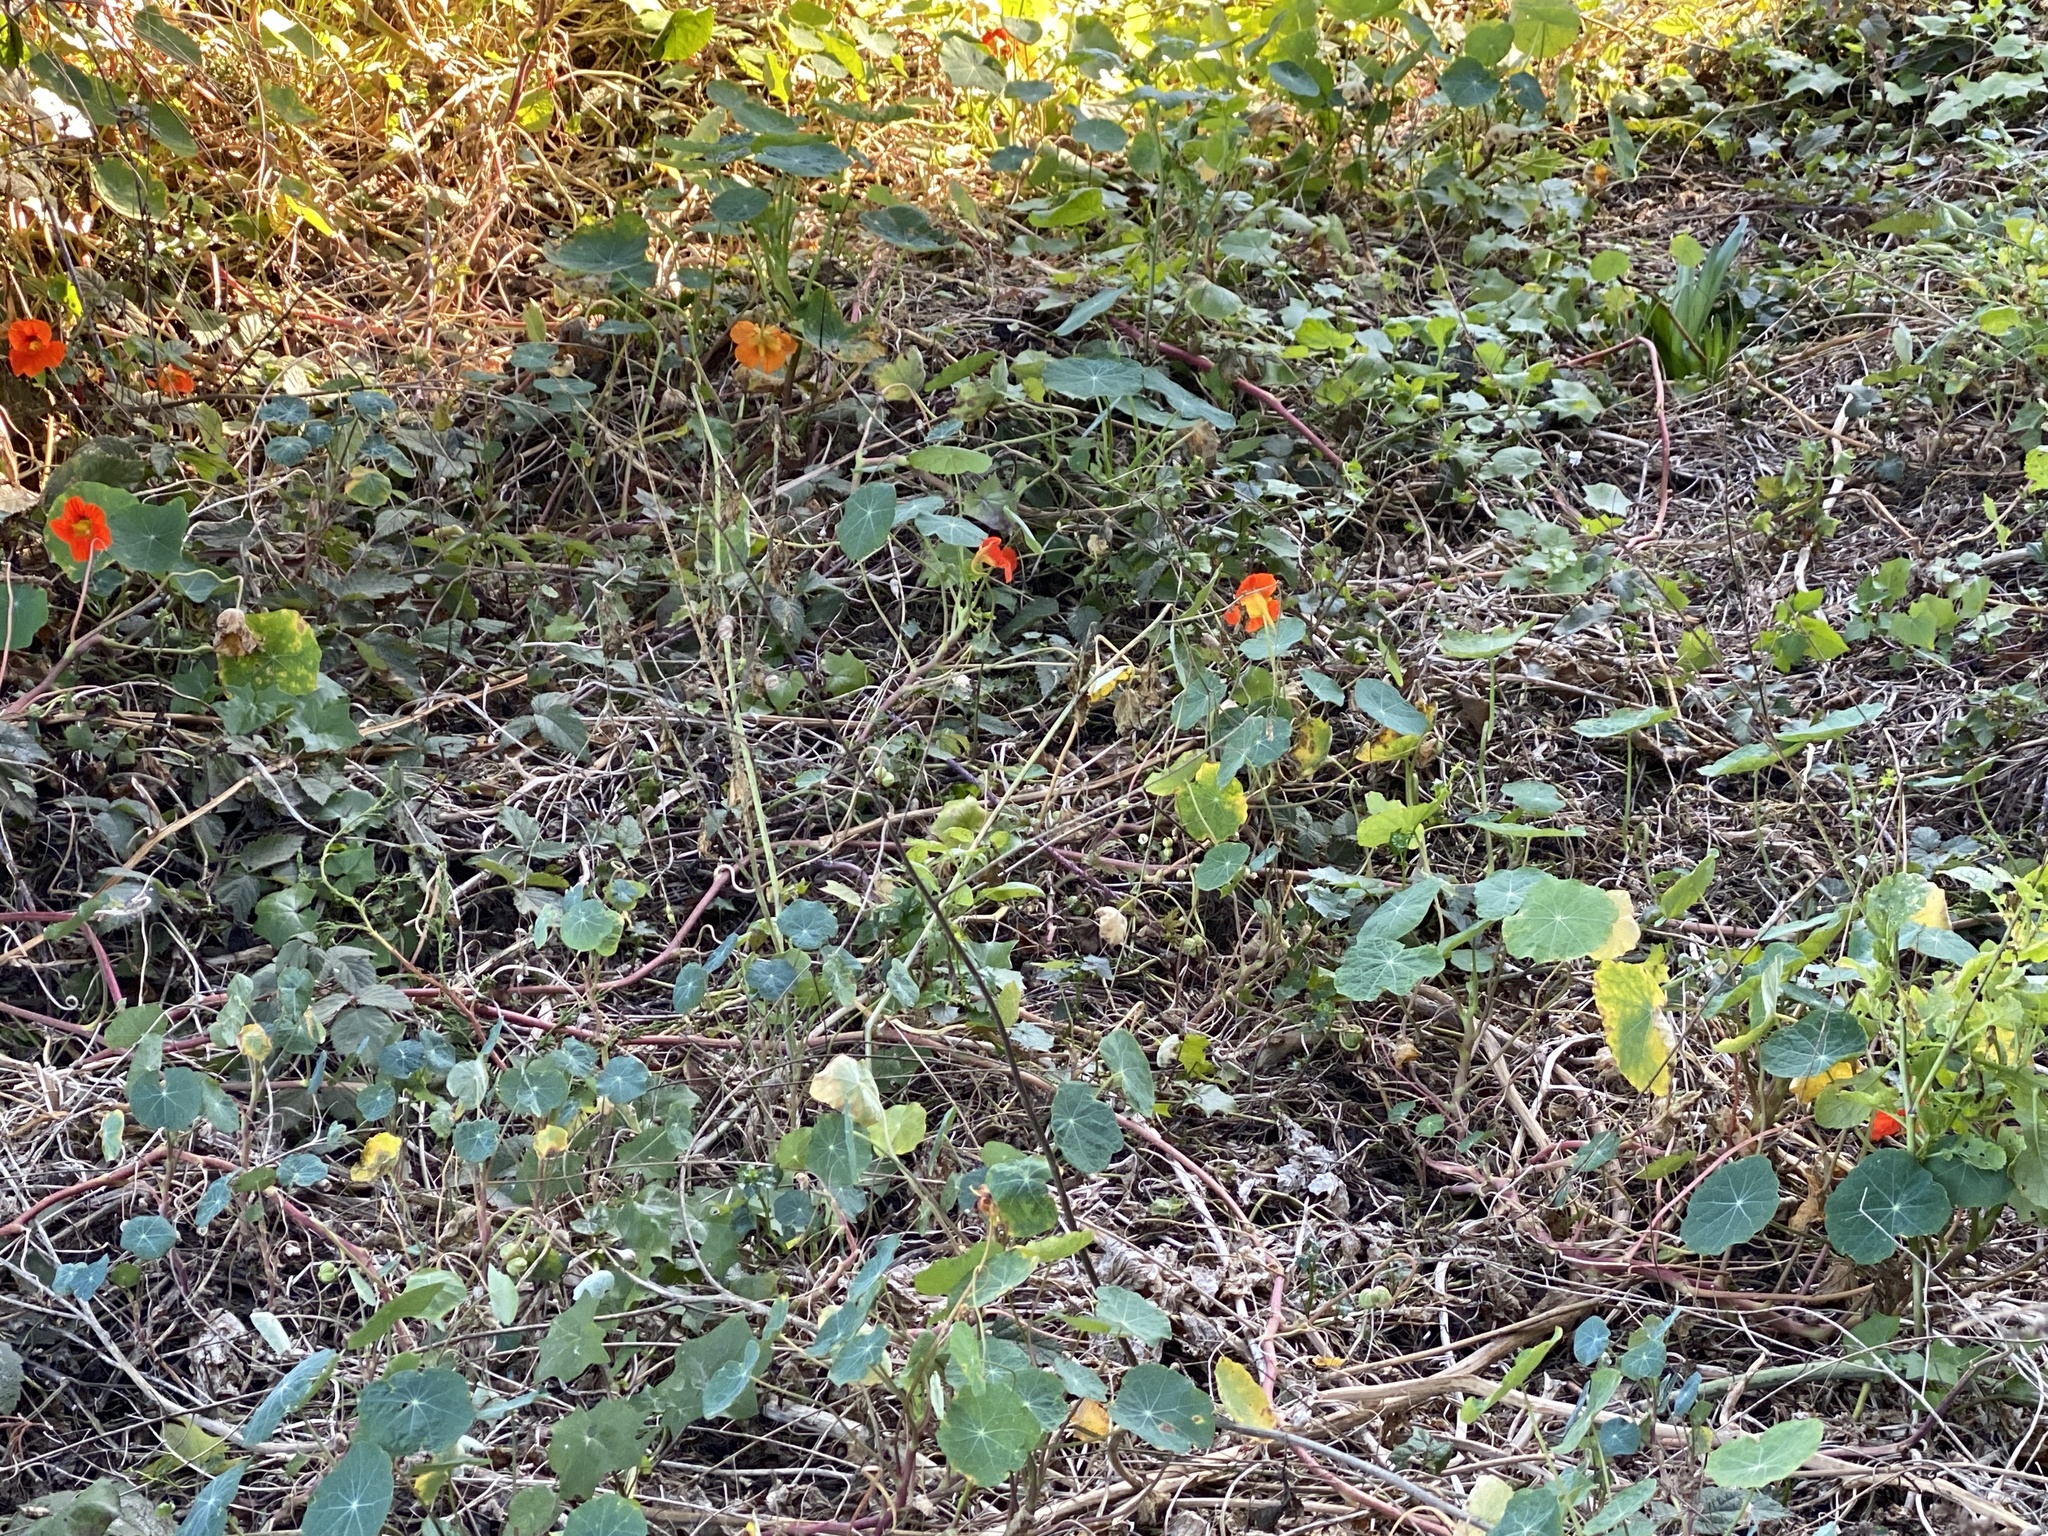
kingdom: Plantae
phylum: Tracheophyta
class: Magnoliopsida
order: Brassicales
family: Tropaeolaceae
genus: Tropaeolum
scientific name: Tropaeolum majus
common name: Nasturtium
